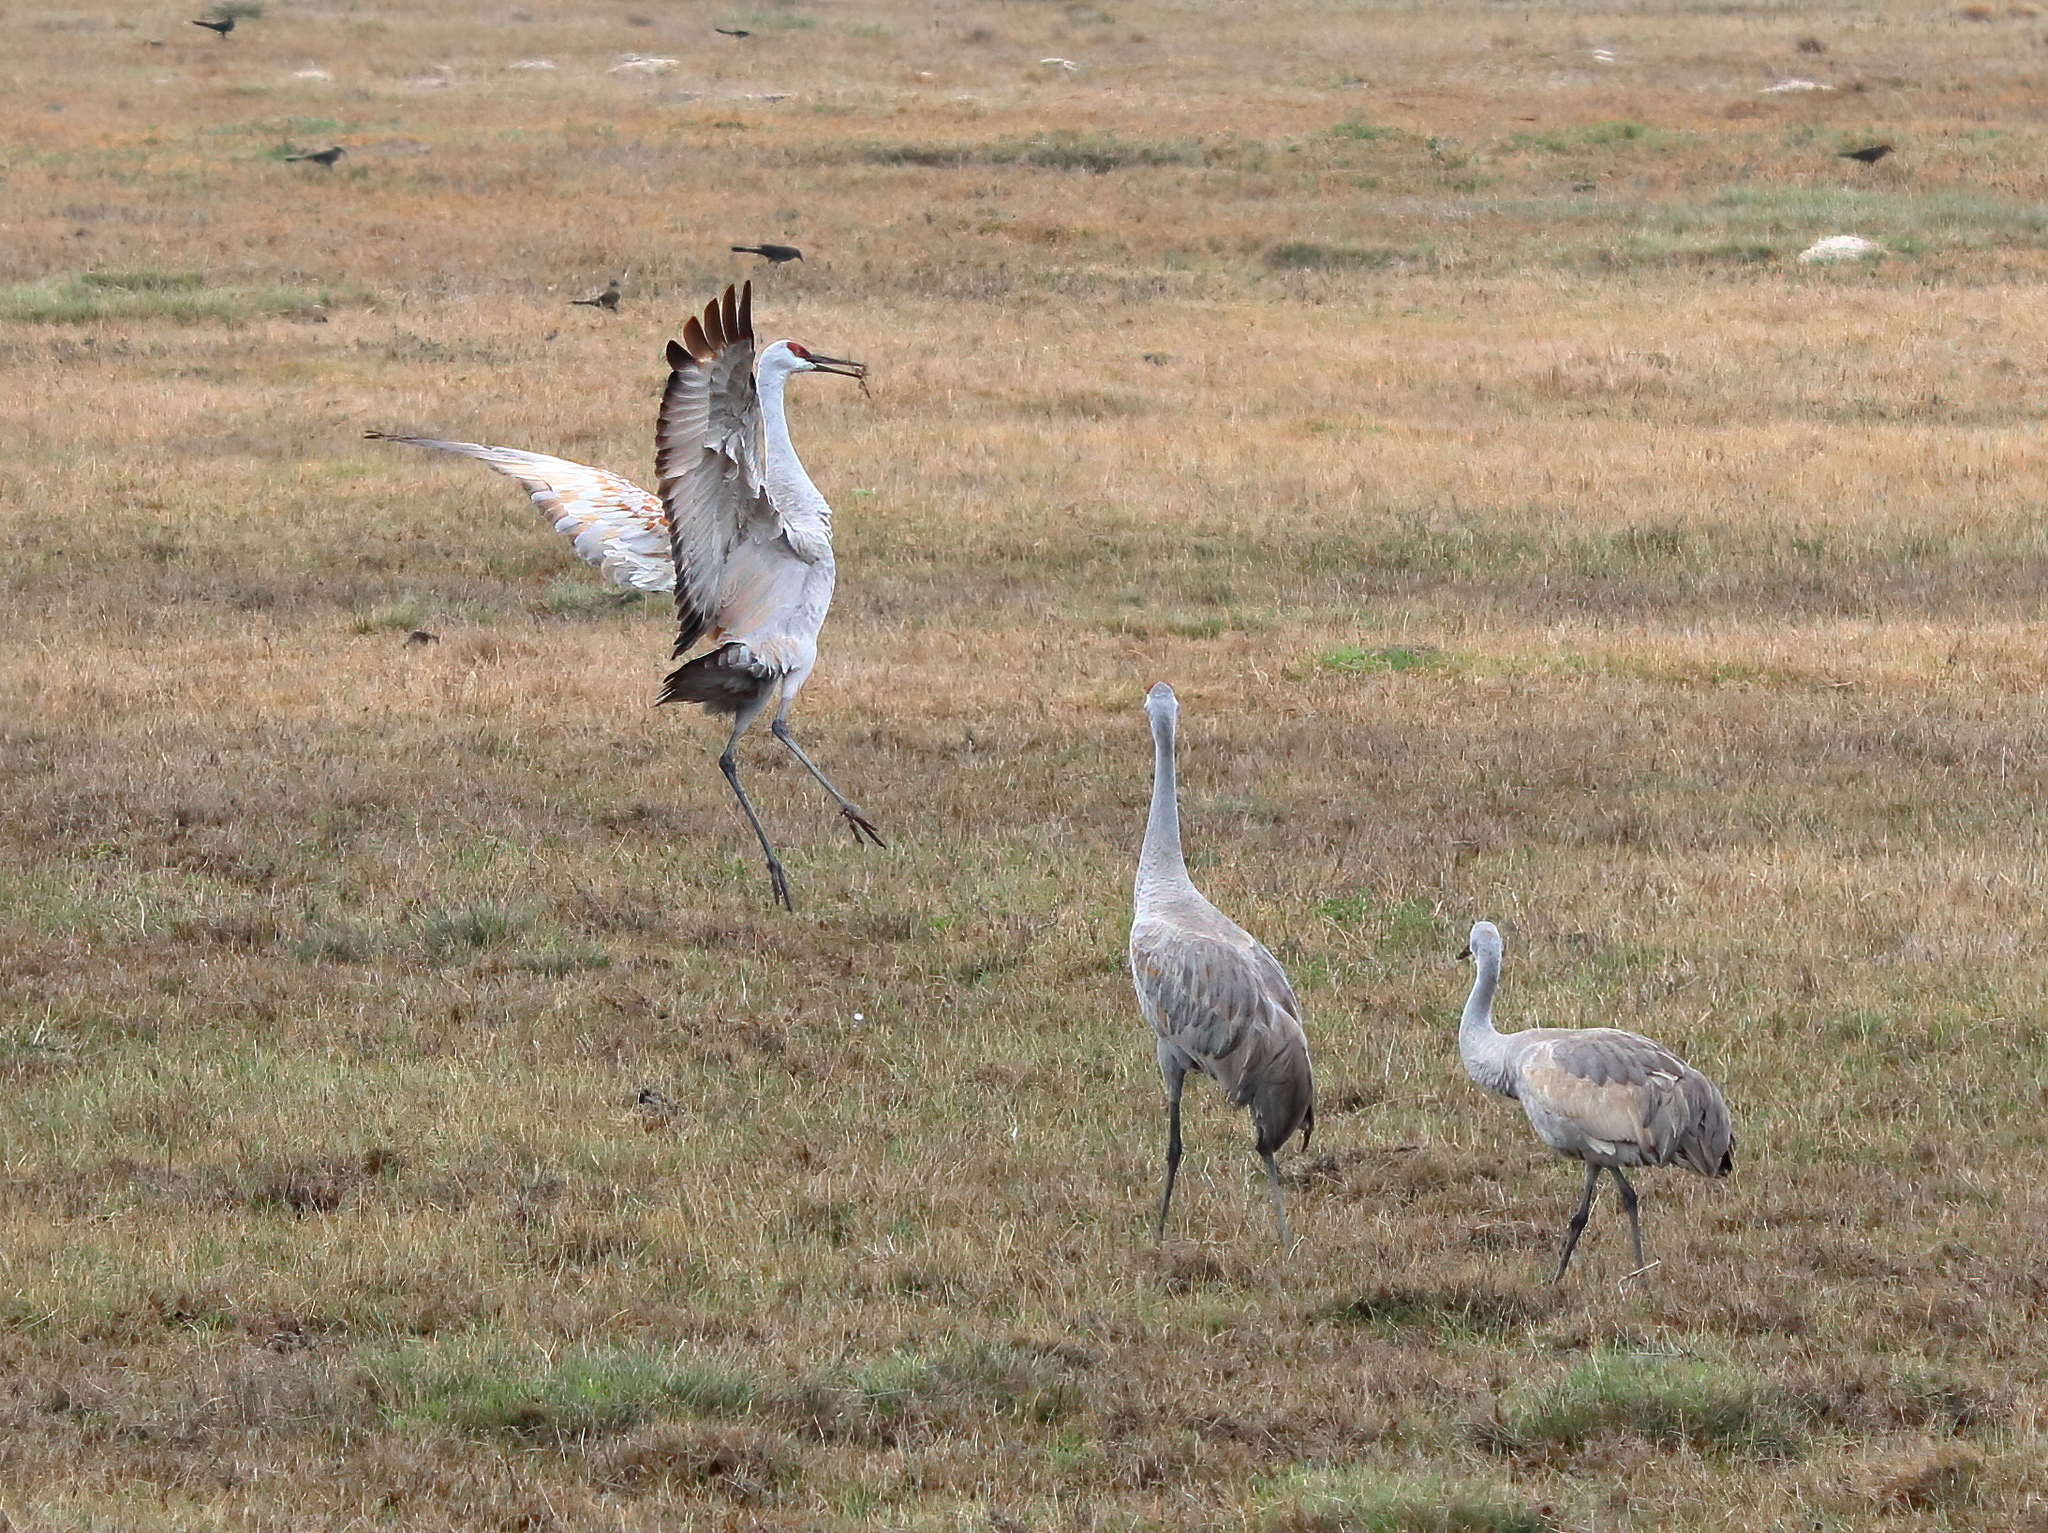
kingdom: Animalia
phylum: Chordata
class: Aves
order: Gruiformes
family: Gruidae
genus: Grus
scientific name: Grus canadensis
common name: Sandhill crane
